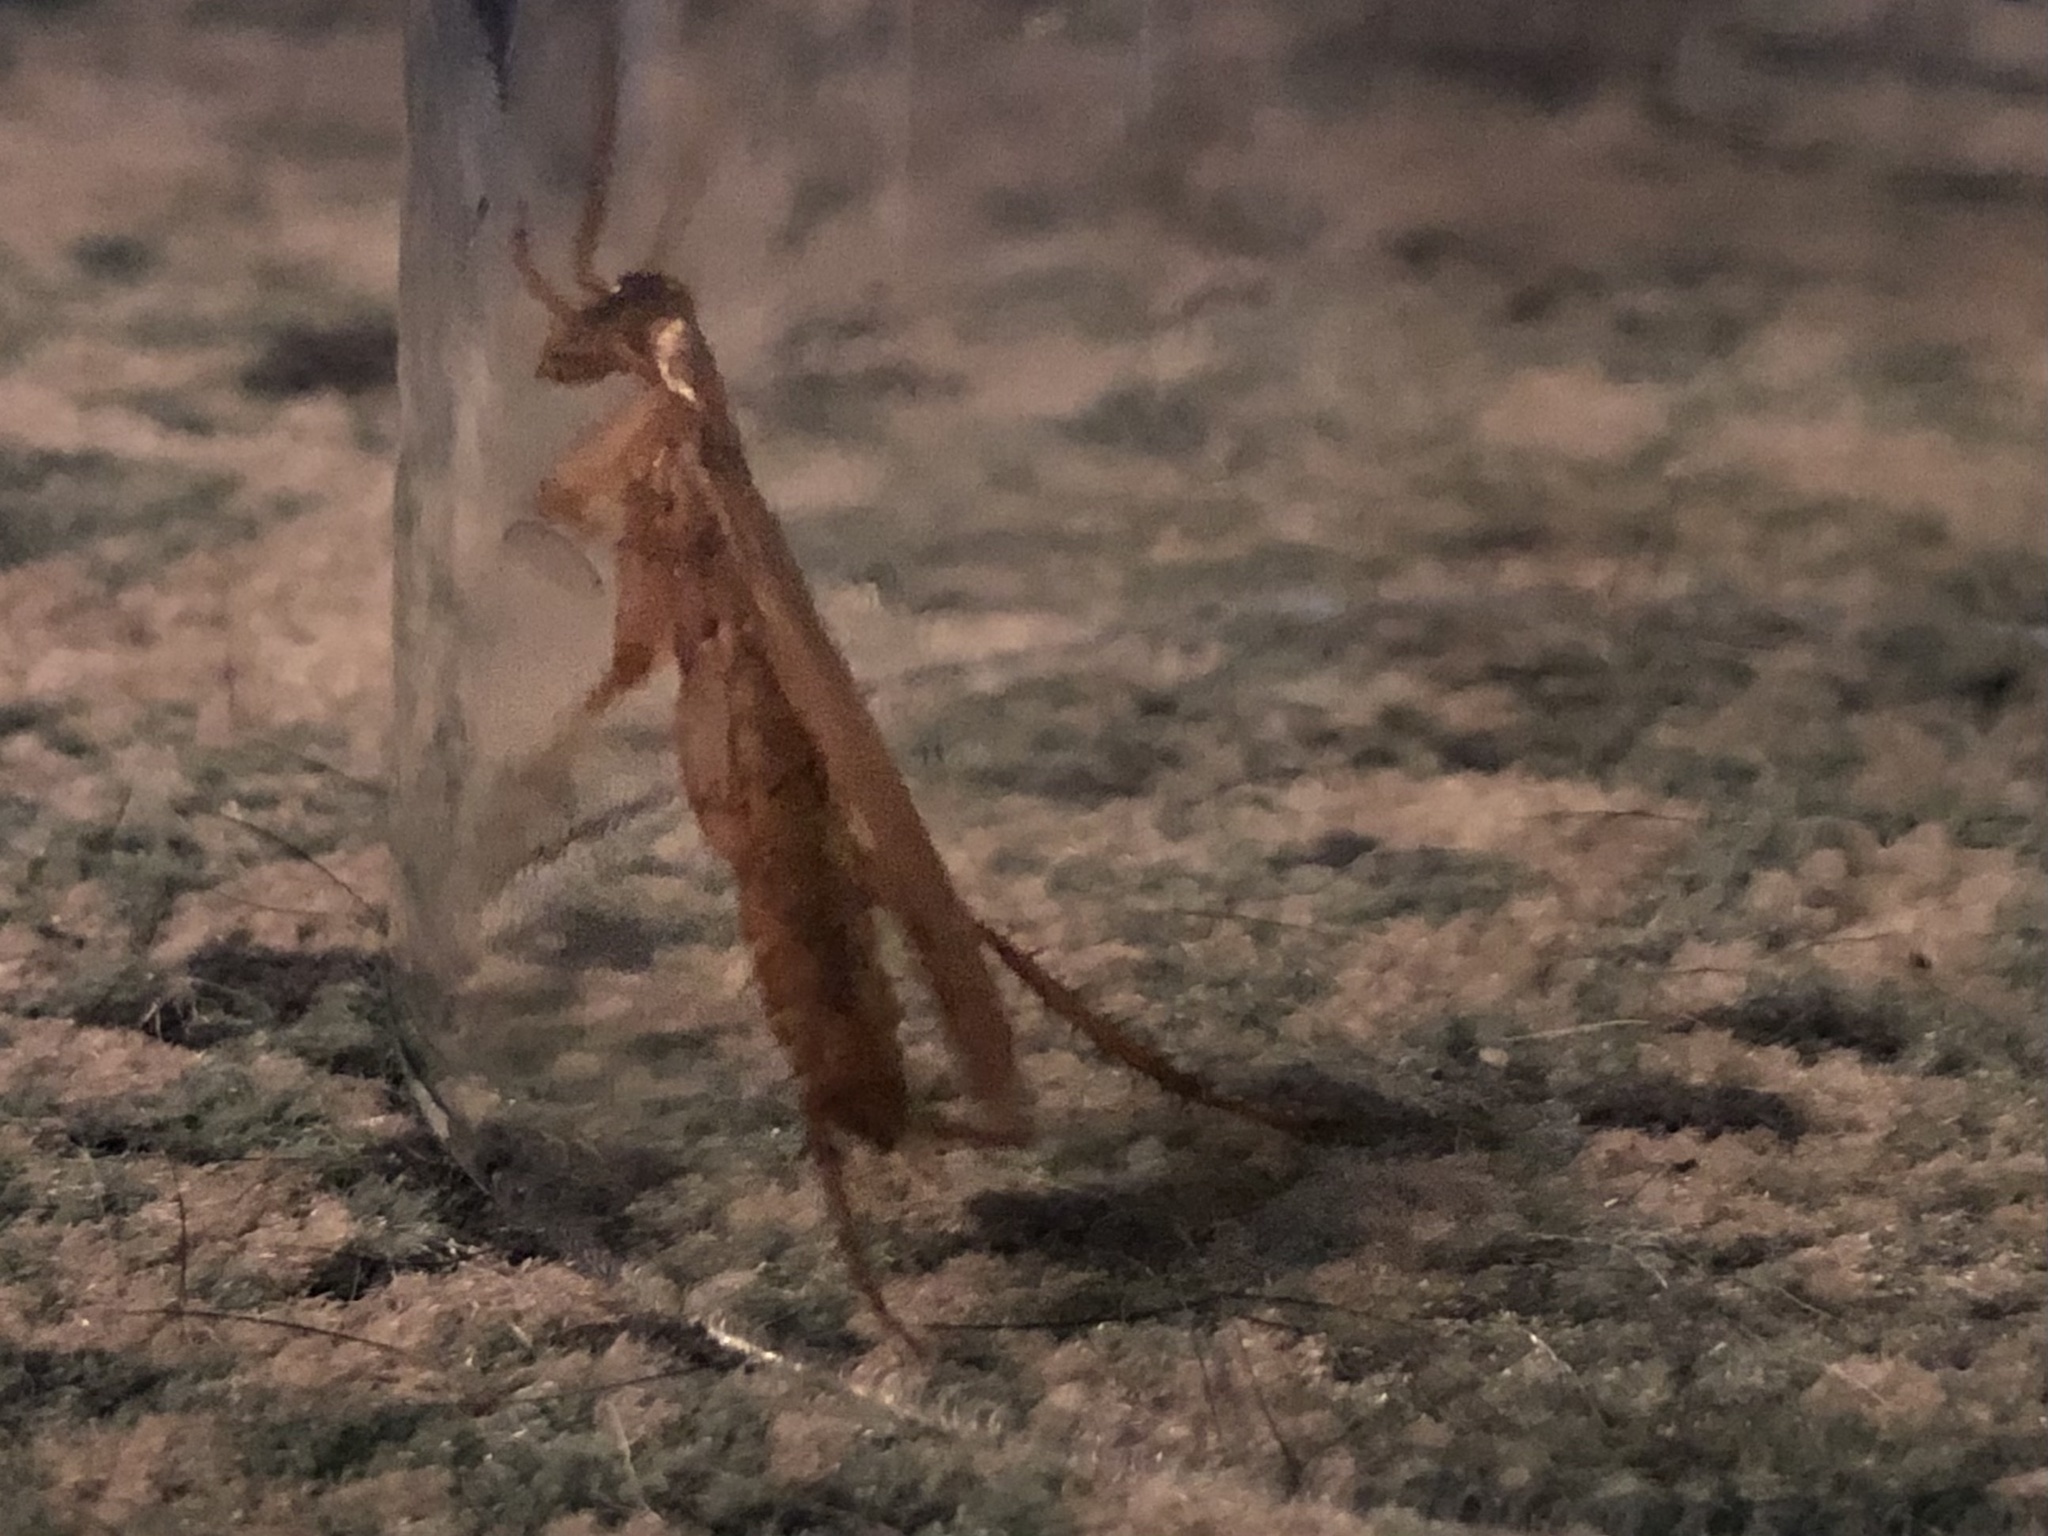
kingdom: Animalia
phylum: Arthropoda
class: Insecta
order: Blattodea
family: Blattidae
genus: Periplaneta
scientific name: Periplaneta lateralis
